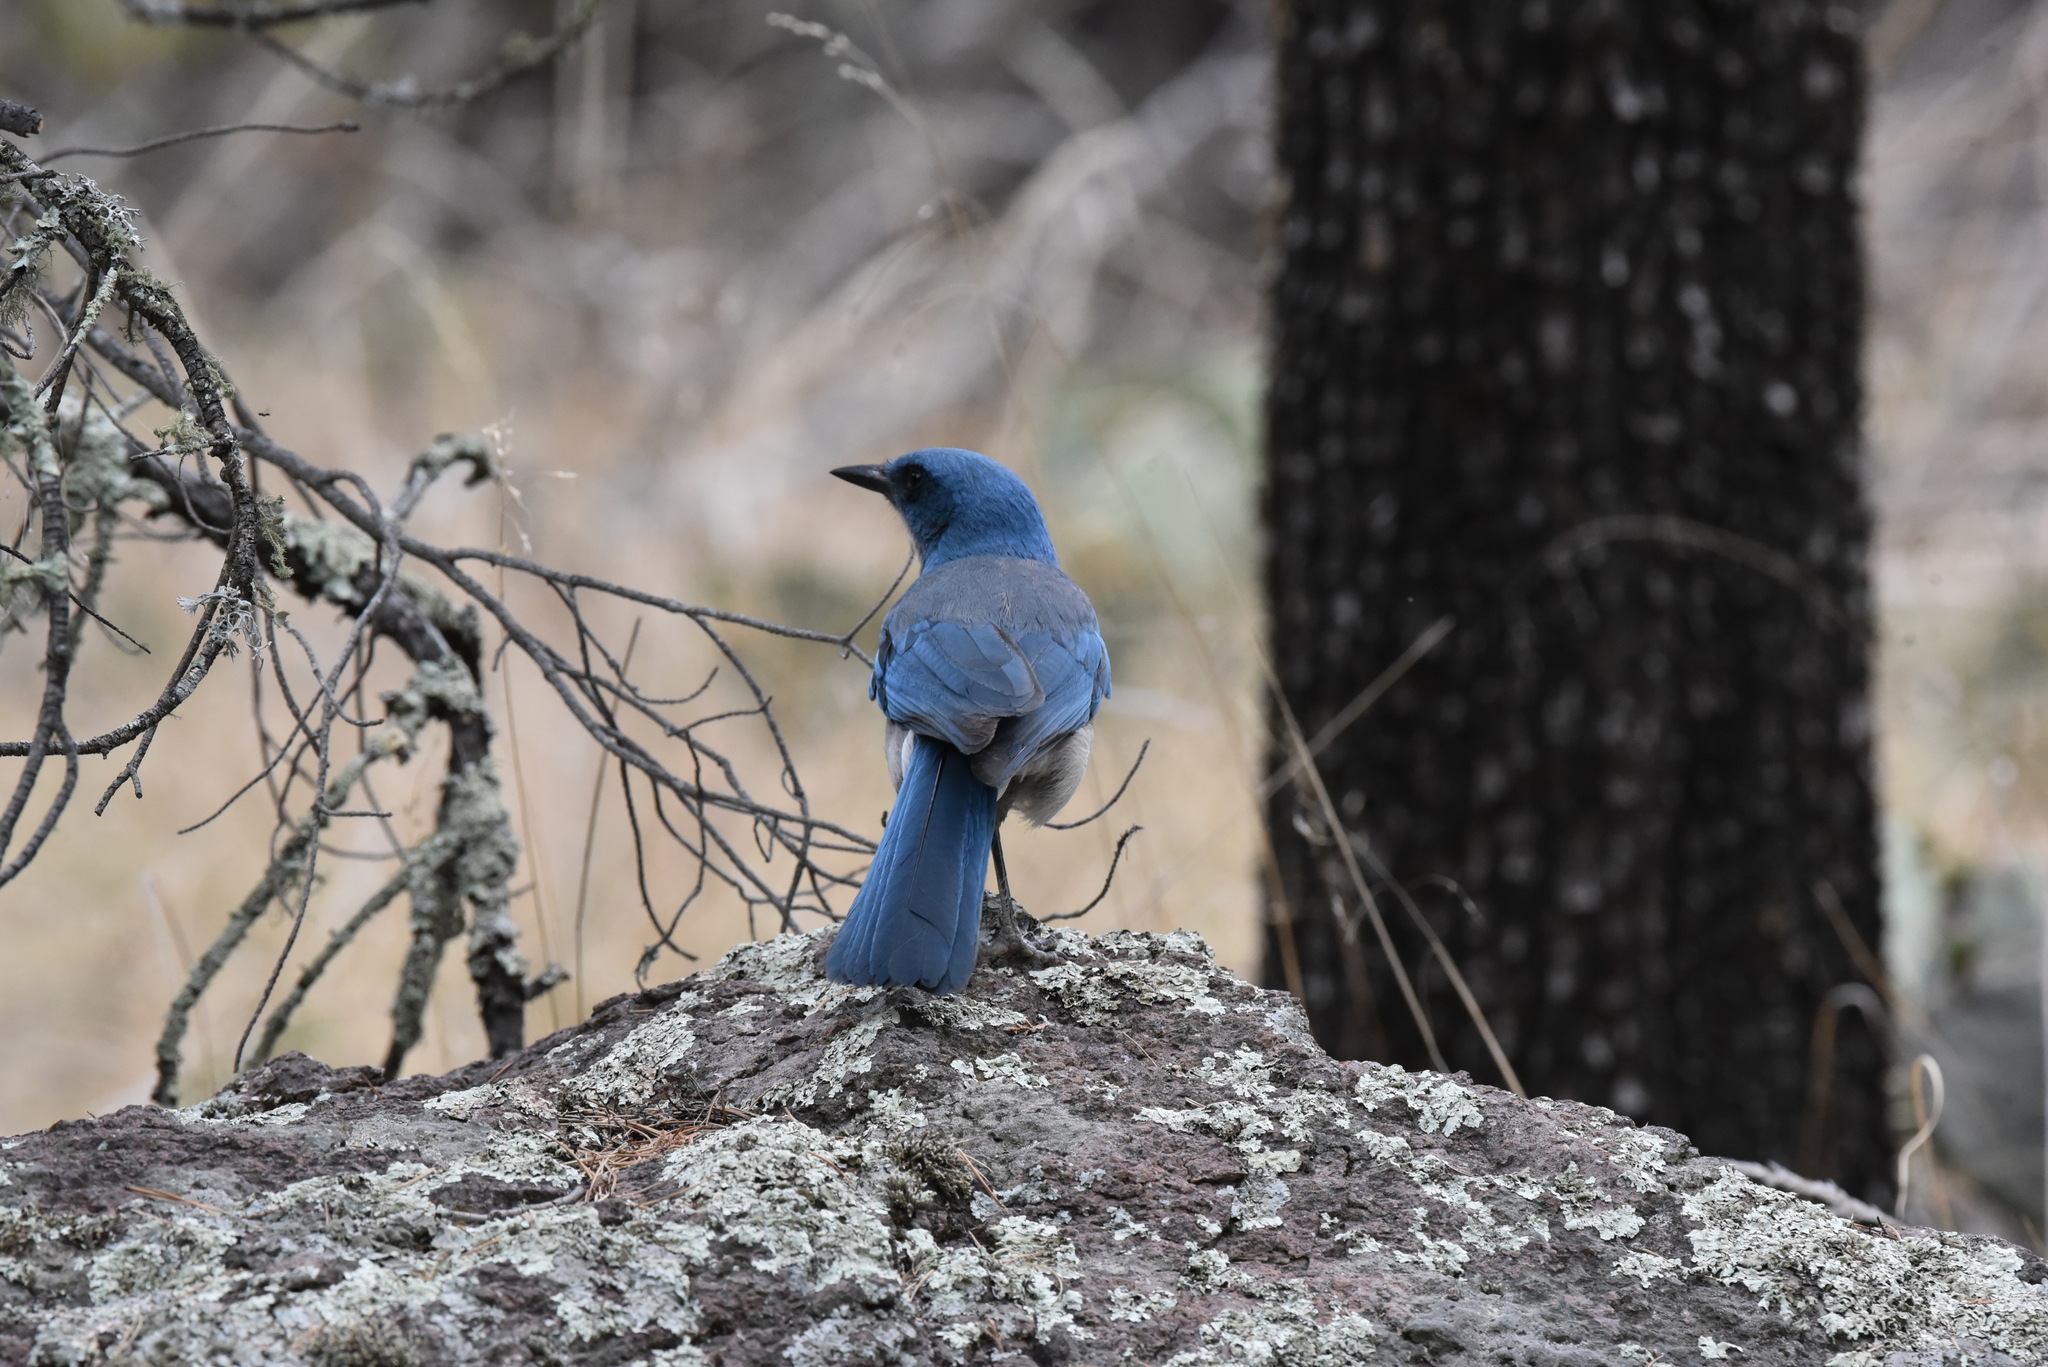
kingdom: Animalia
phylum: Chordata
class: Aves
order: Passeriformes
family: Corvidae
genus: Aphelocoma
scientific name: Aphelocoma wollweberi
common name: Mexican jay
